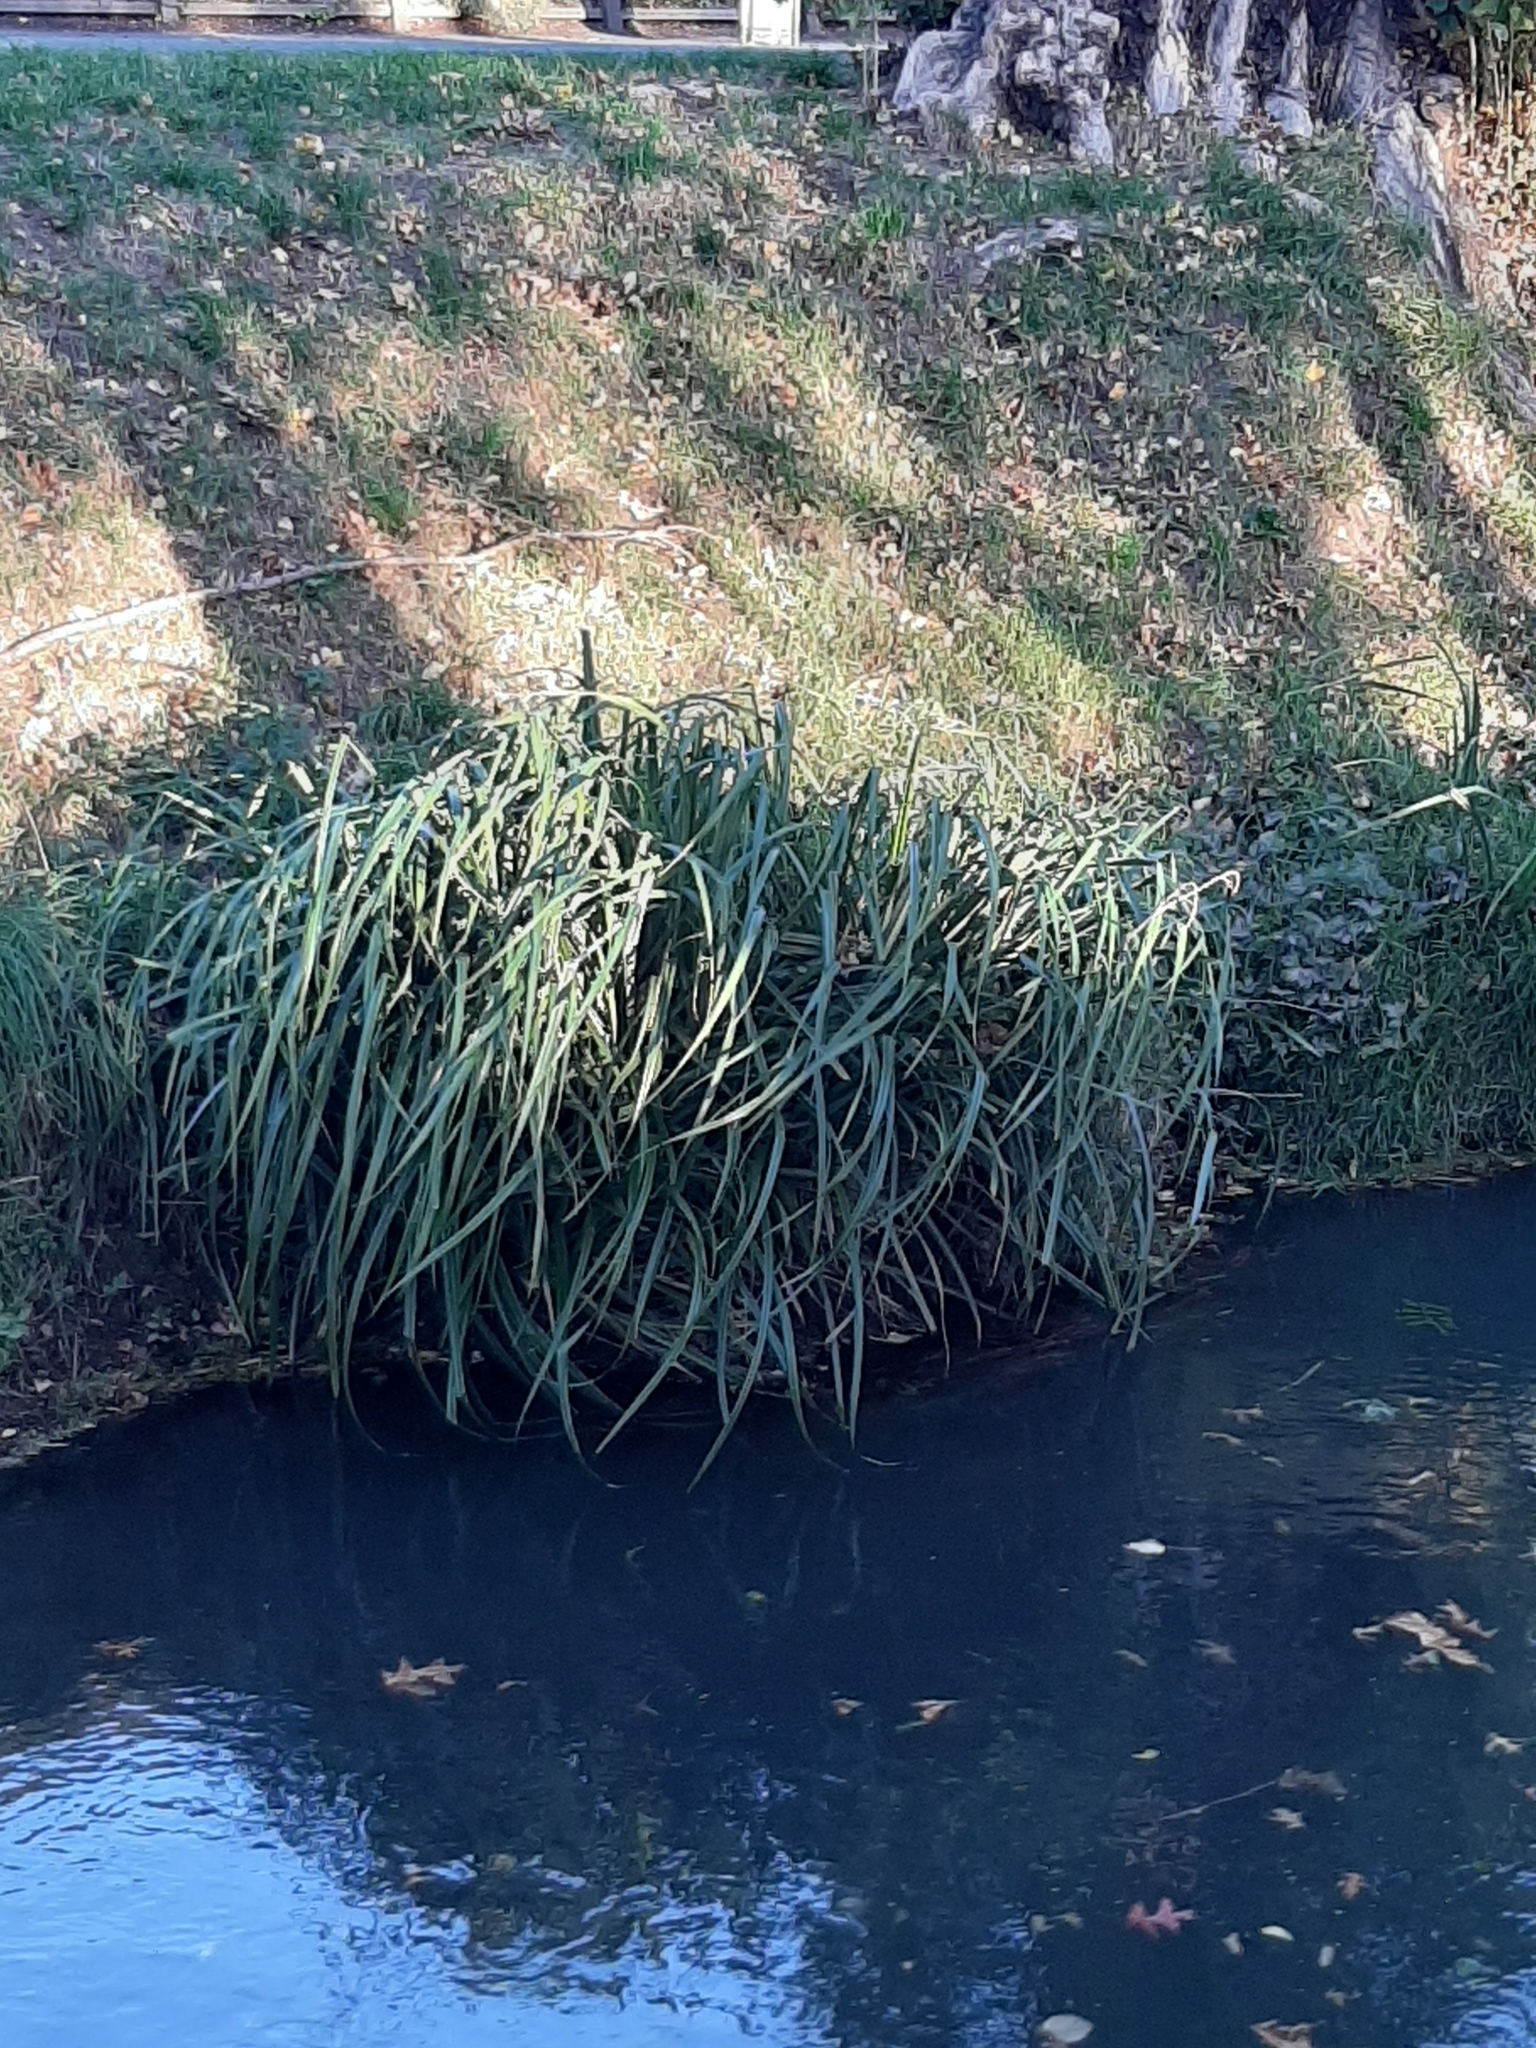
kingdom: Plantae
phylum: Tracheophyta
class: Liliopsida
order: Poales
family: Cyperaceae
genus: Carex
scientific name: Carex pendula
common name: Pendulous sedge
